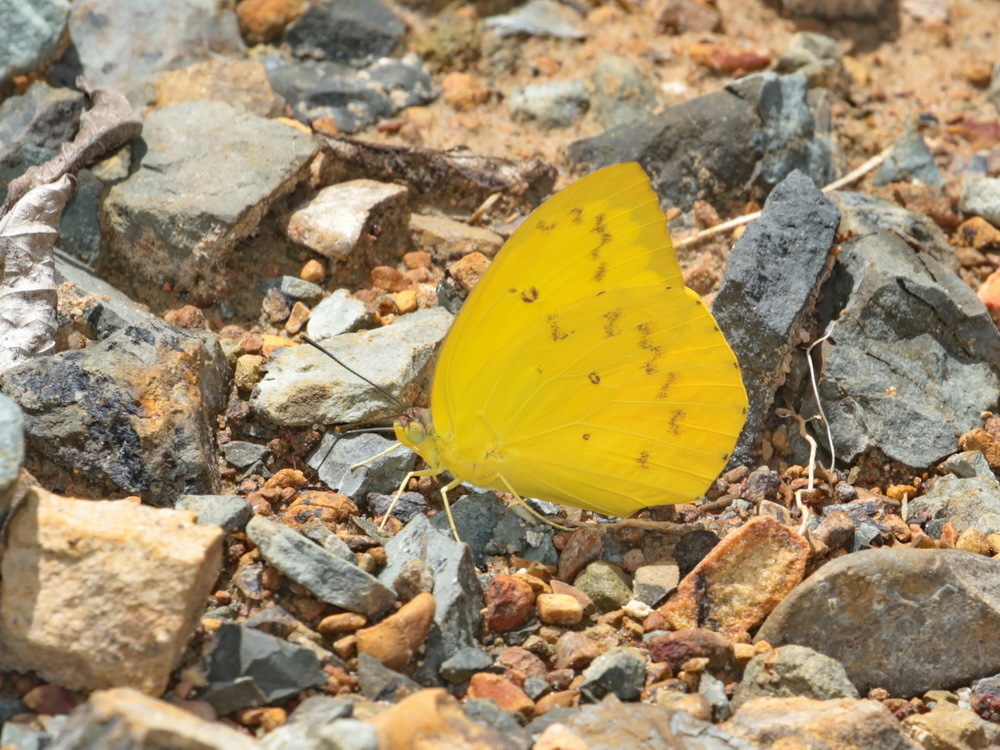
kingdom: Animalia
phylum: Arthropoda
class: Insecta
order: Lepidoptera
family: Pieridae
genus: Catopsilia
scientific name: Catopsilia scylla
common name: Orange emigrant
